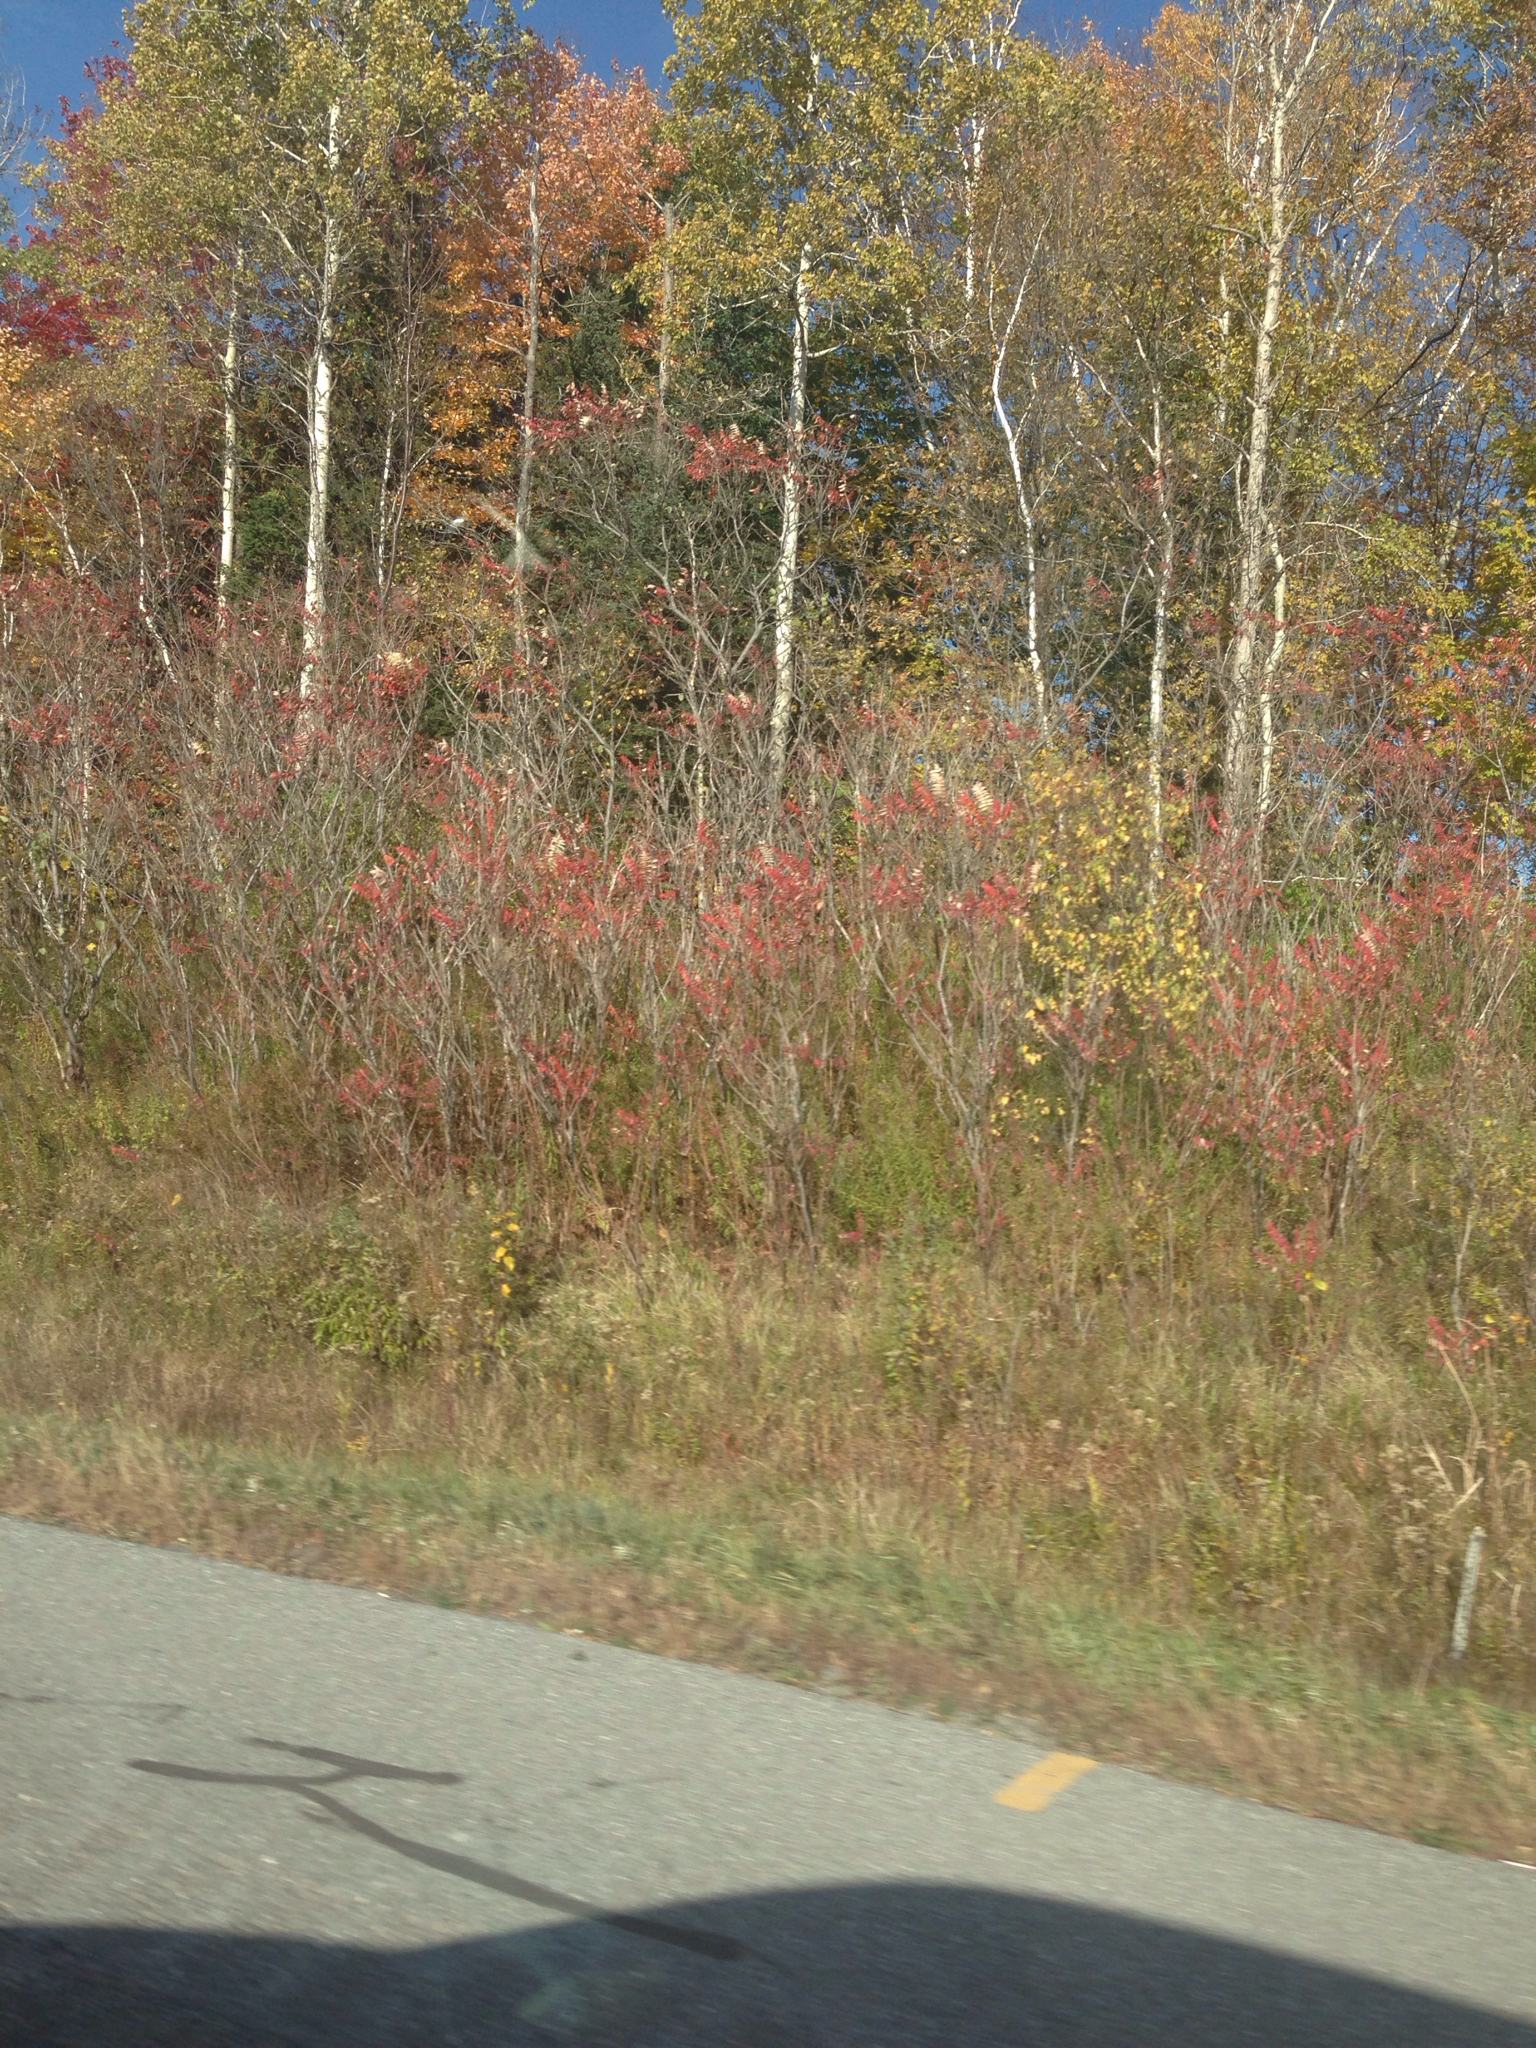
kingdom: Plantae
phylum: Tracheophyta
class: Magnoliopsida
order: Sapindales
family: Anacardiaceae
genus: Rhus
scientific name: Rhus typhina
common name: Staghorn sumac
